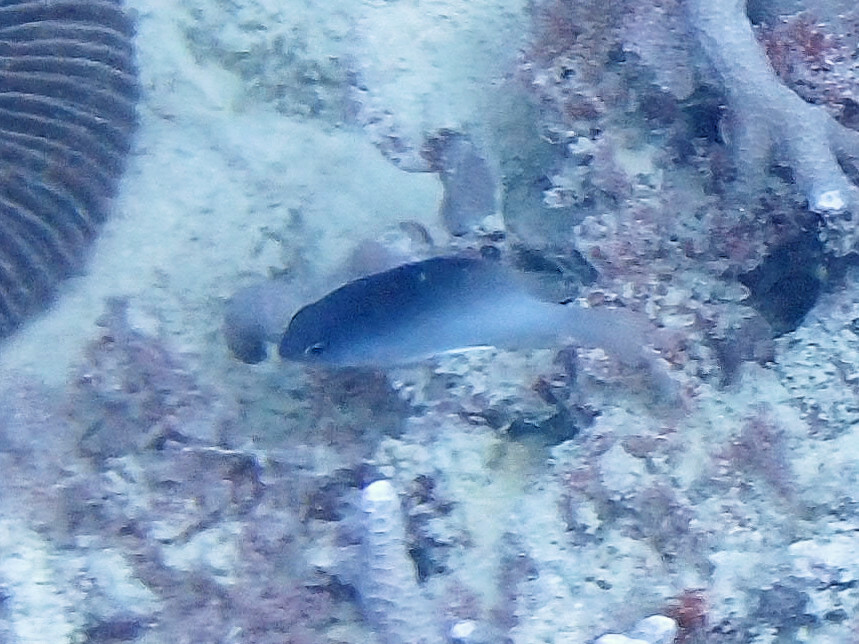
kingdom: Animalia
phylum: Chordata
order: Perciformes
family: Pomacentridae
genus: Chrysiptera
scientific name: Chrysiptera rollandi
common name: Rolland's demoiselle
